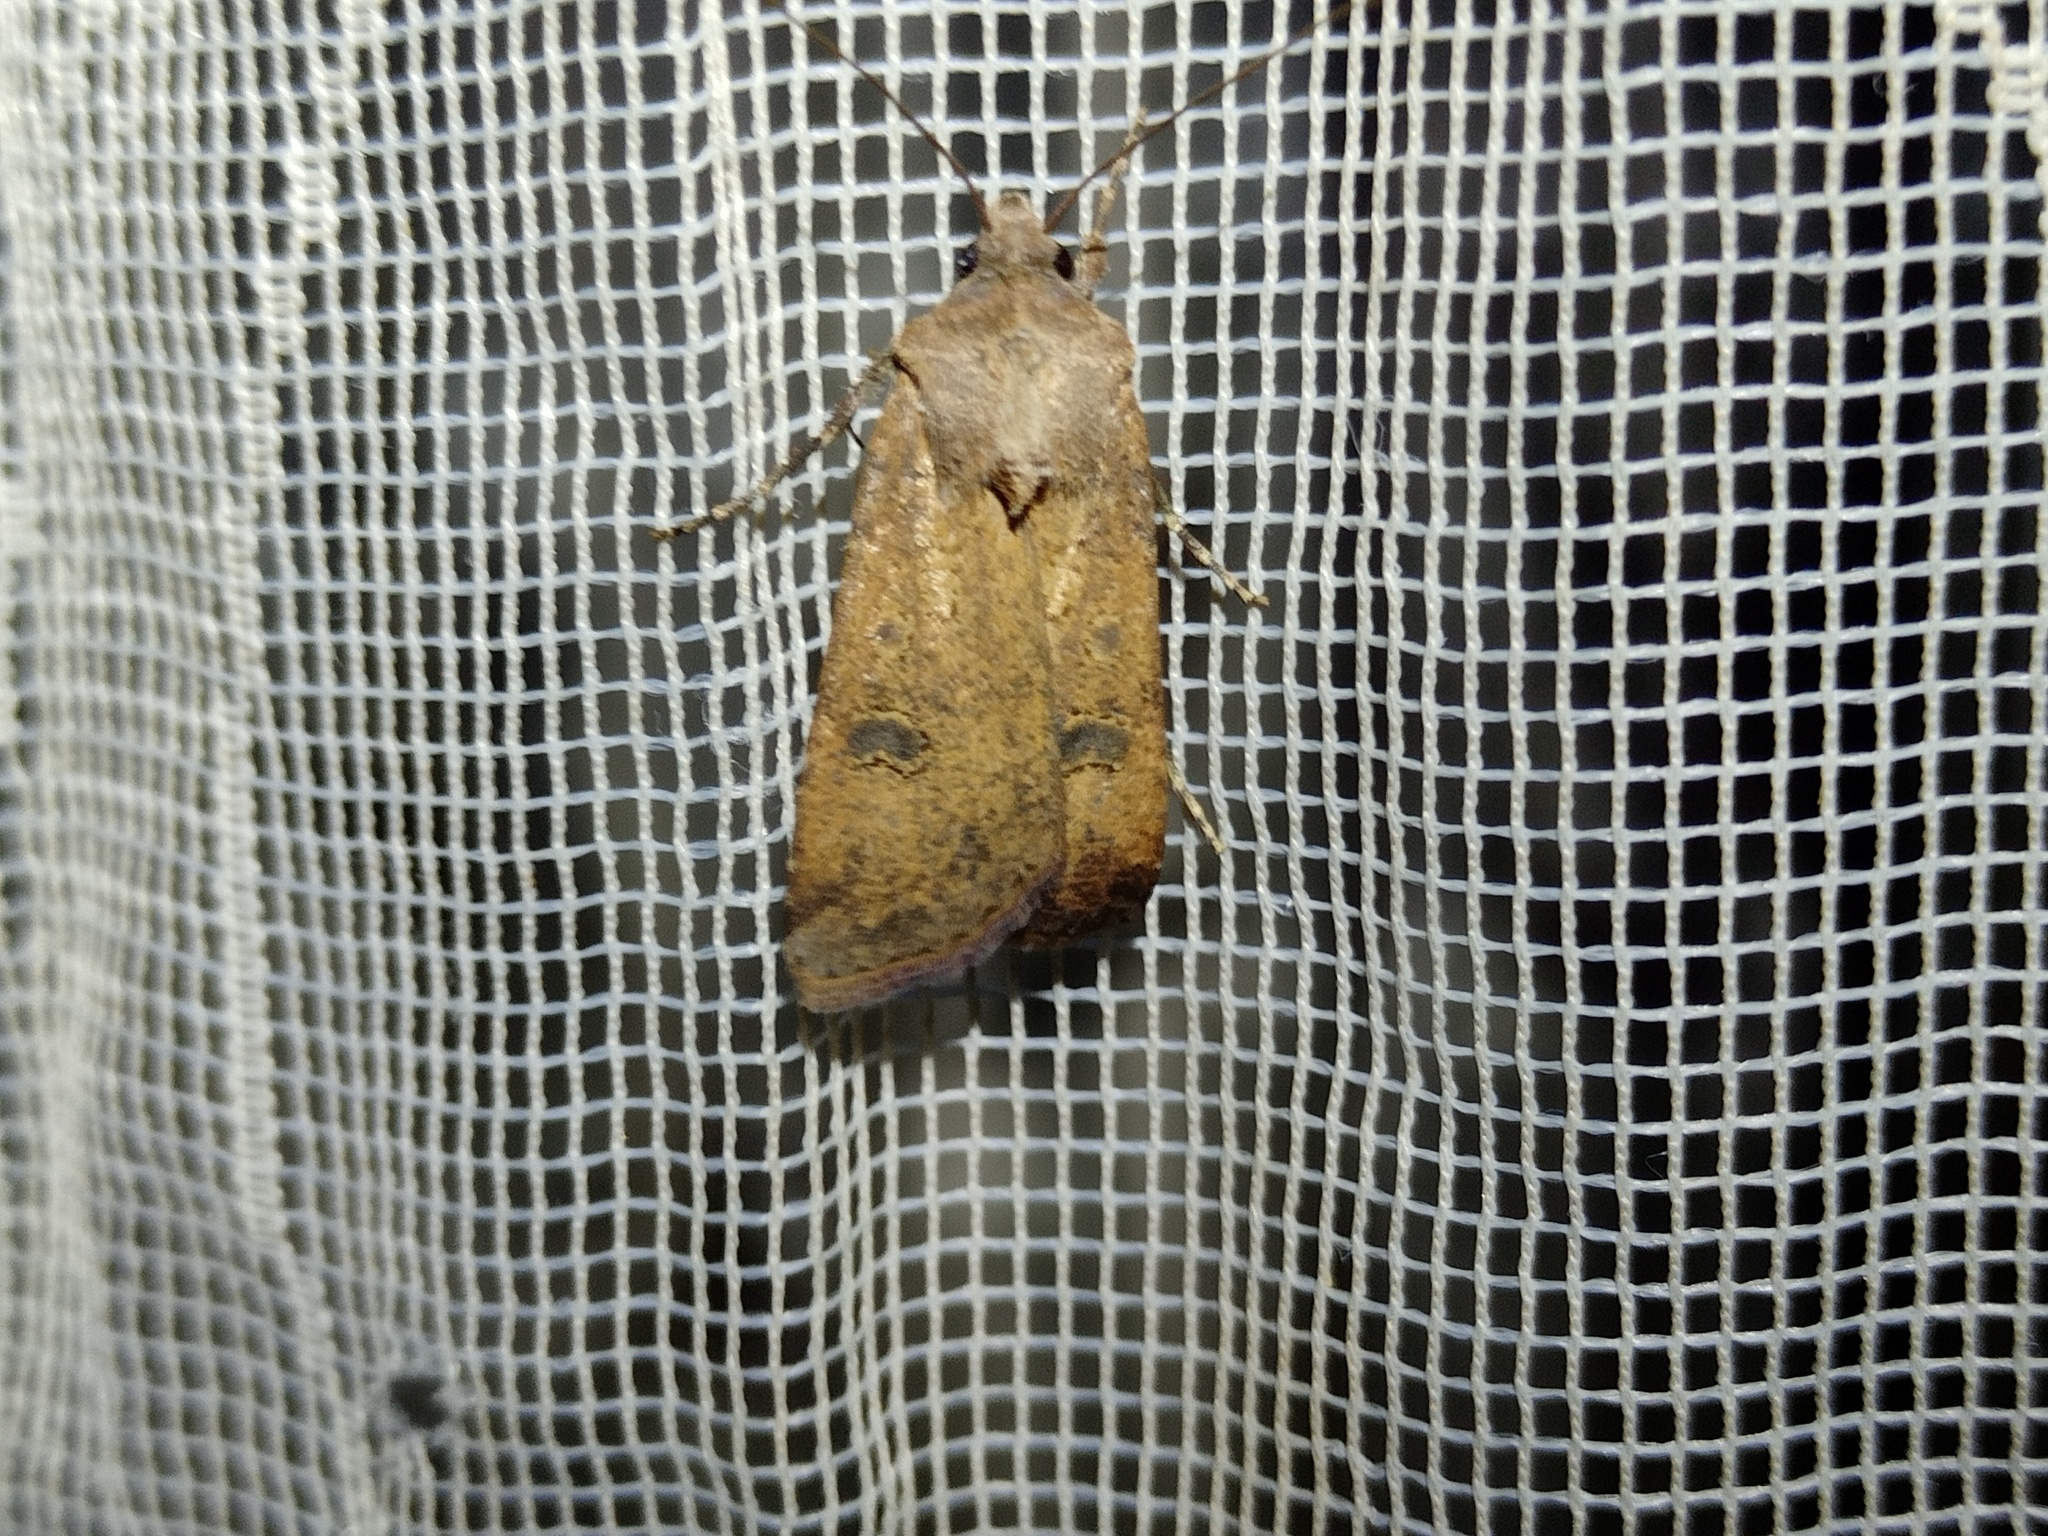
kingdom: Animalia
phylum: Arthropoda
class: Insecta
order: Lepidoptera
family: Noctuidae
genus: Agrotis
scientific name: Agrotis trux
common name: Crescent dart
